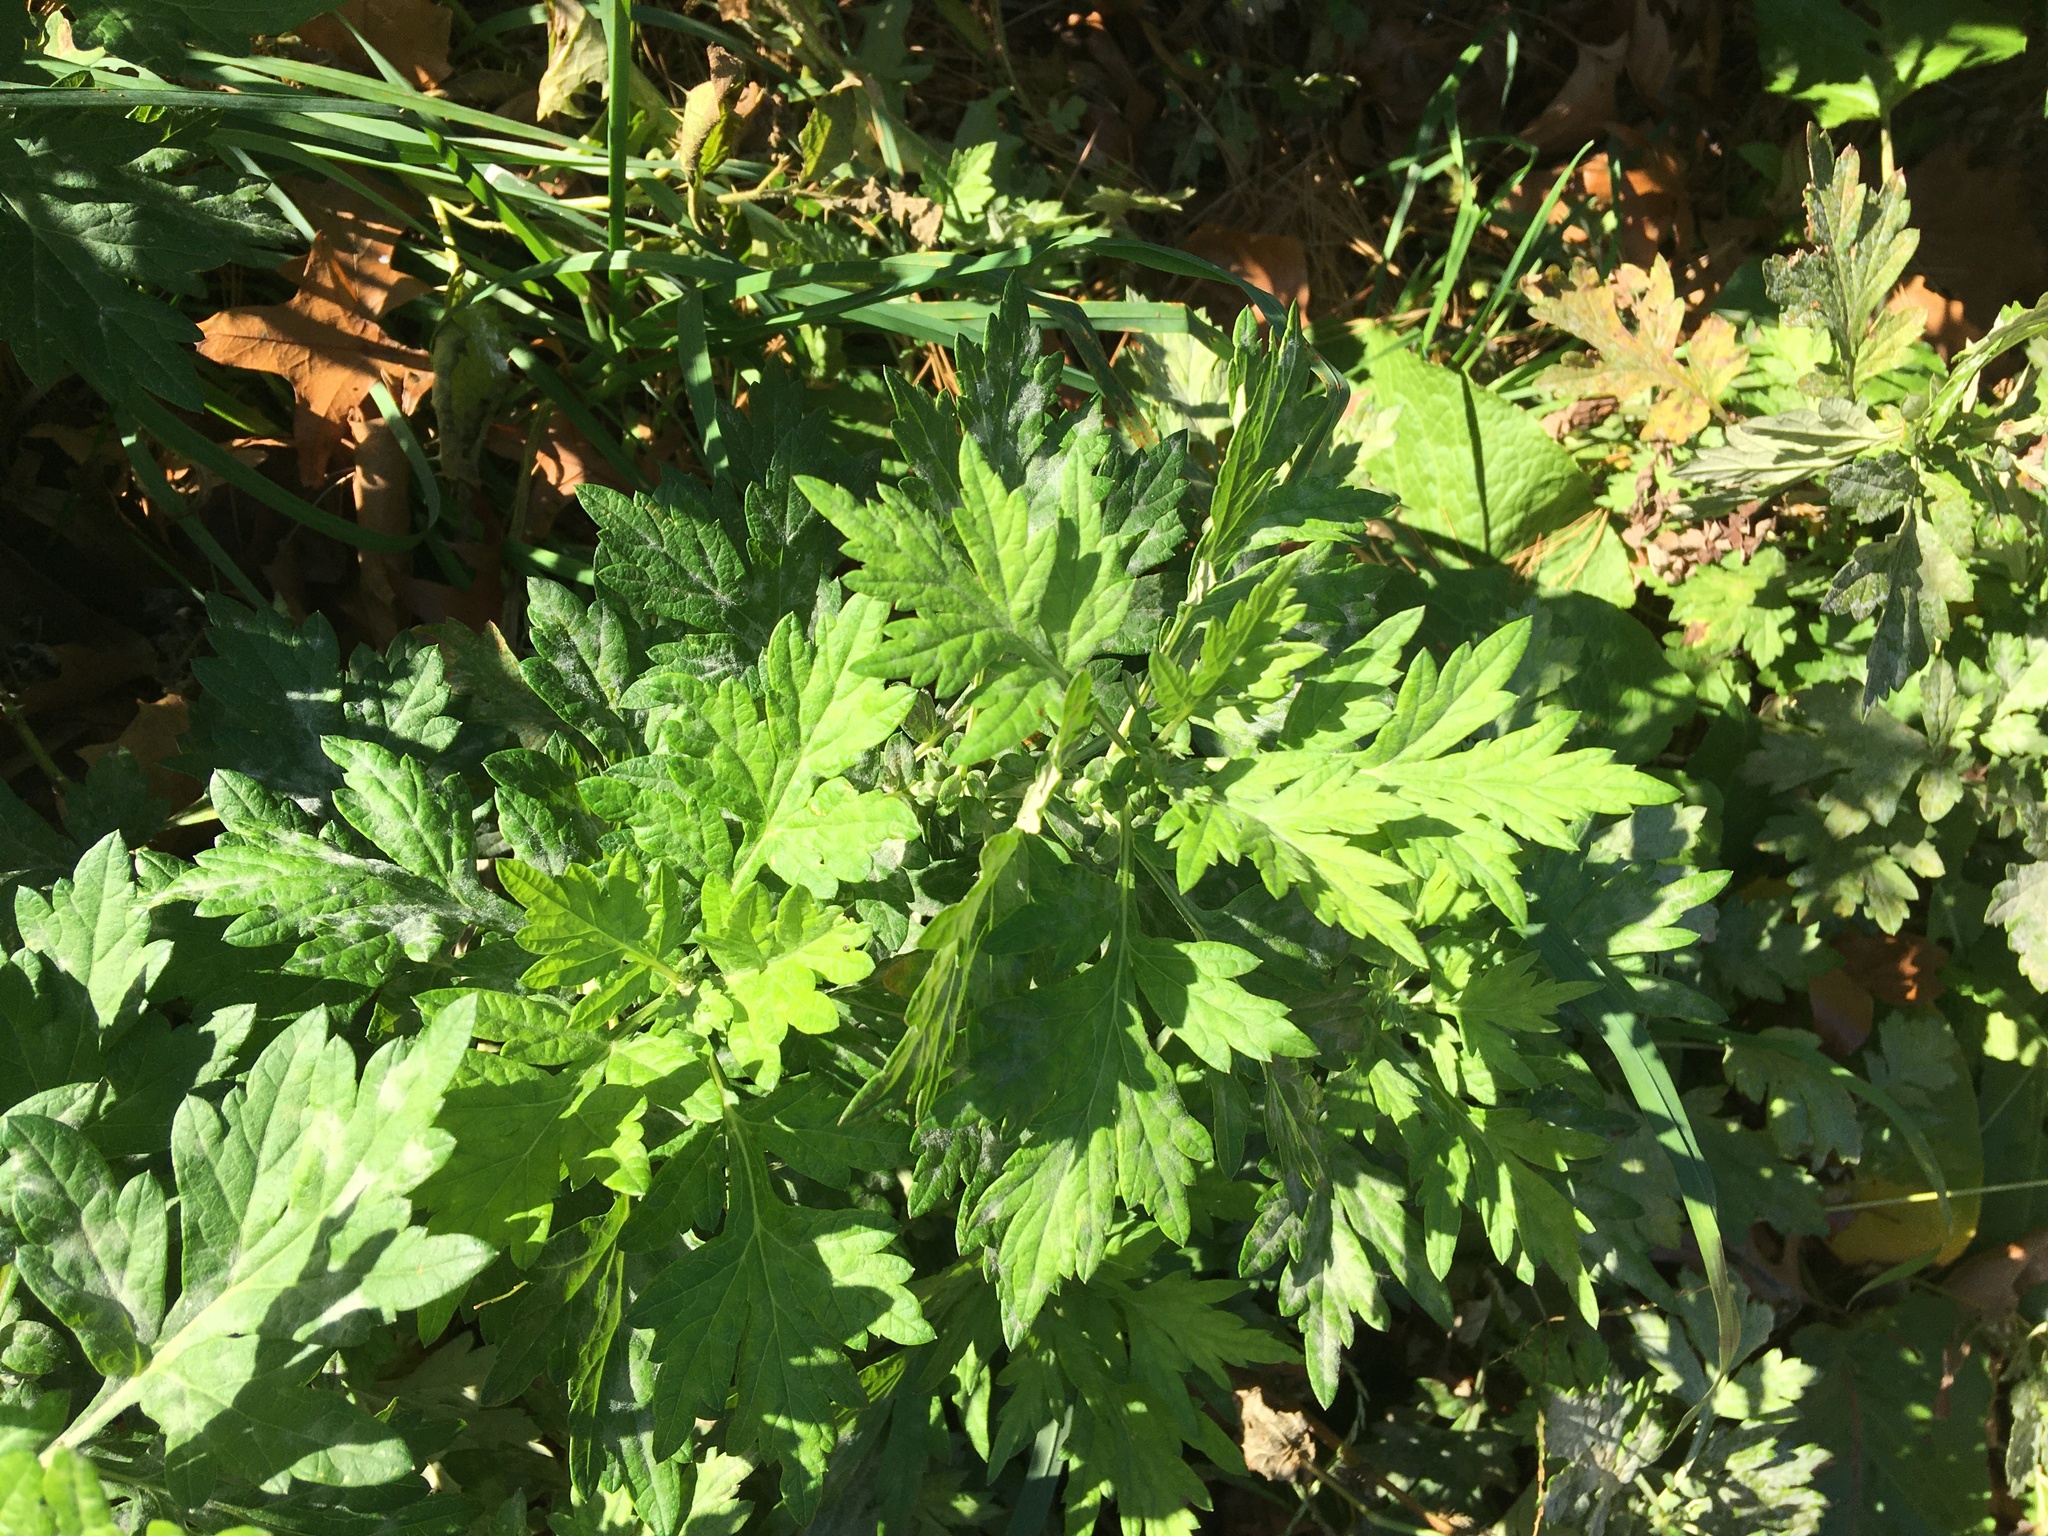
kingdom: Plantae
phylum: Tracheophyta
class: Magnoliopsida
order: Asterales
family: Asteraceae
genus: Artemisia
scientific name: Artemisia vulgaris
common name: Mugwort
